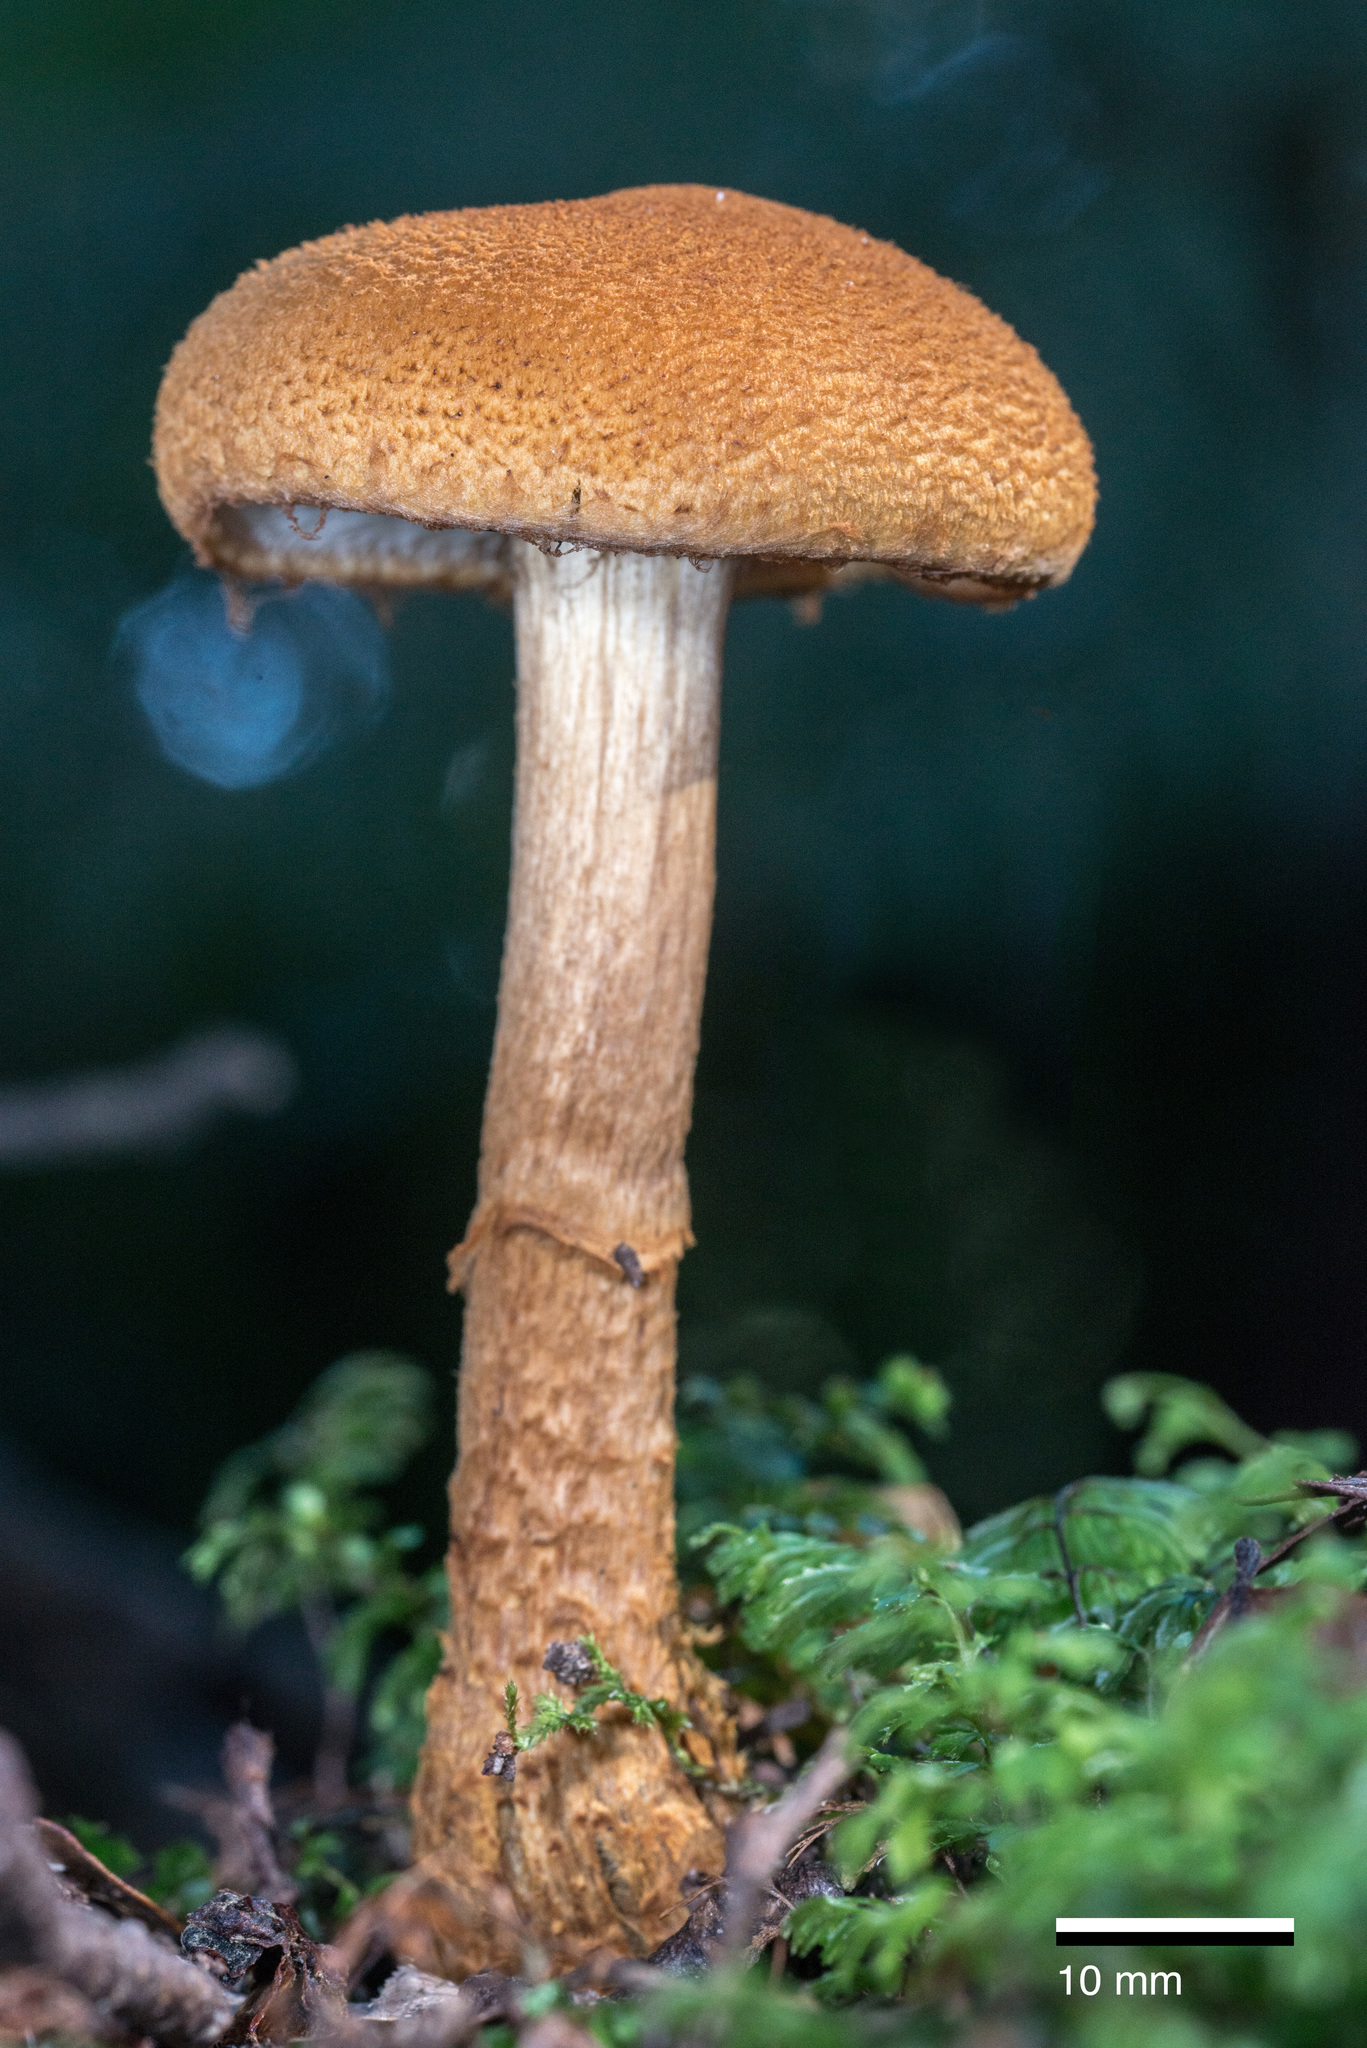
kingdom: Fungi
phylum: Basidiomycota
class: Agaricomycetes
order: Agaricales
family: Cortinariaceae
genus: Thaxterogaster
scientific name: Thaxterogaster castoreus
